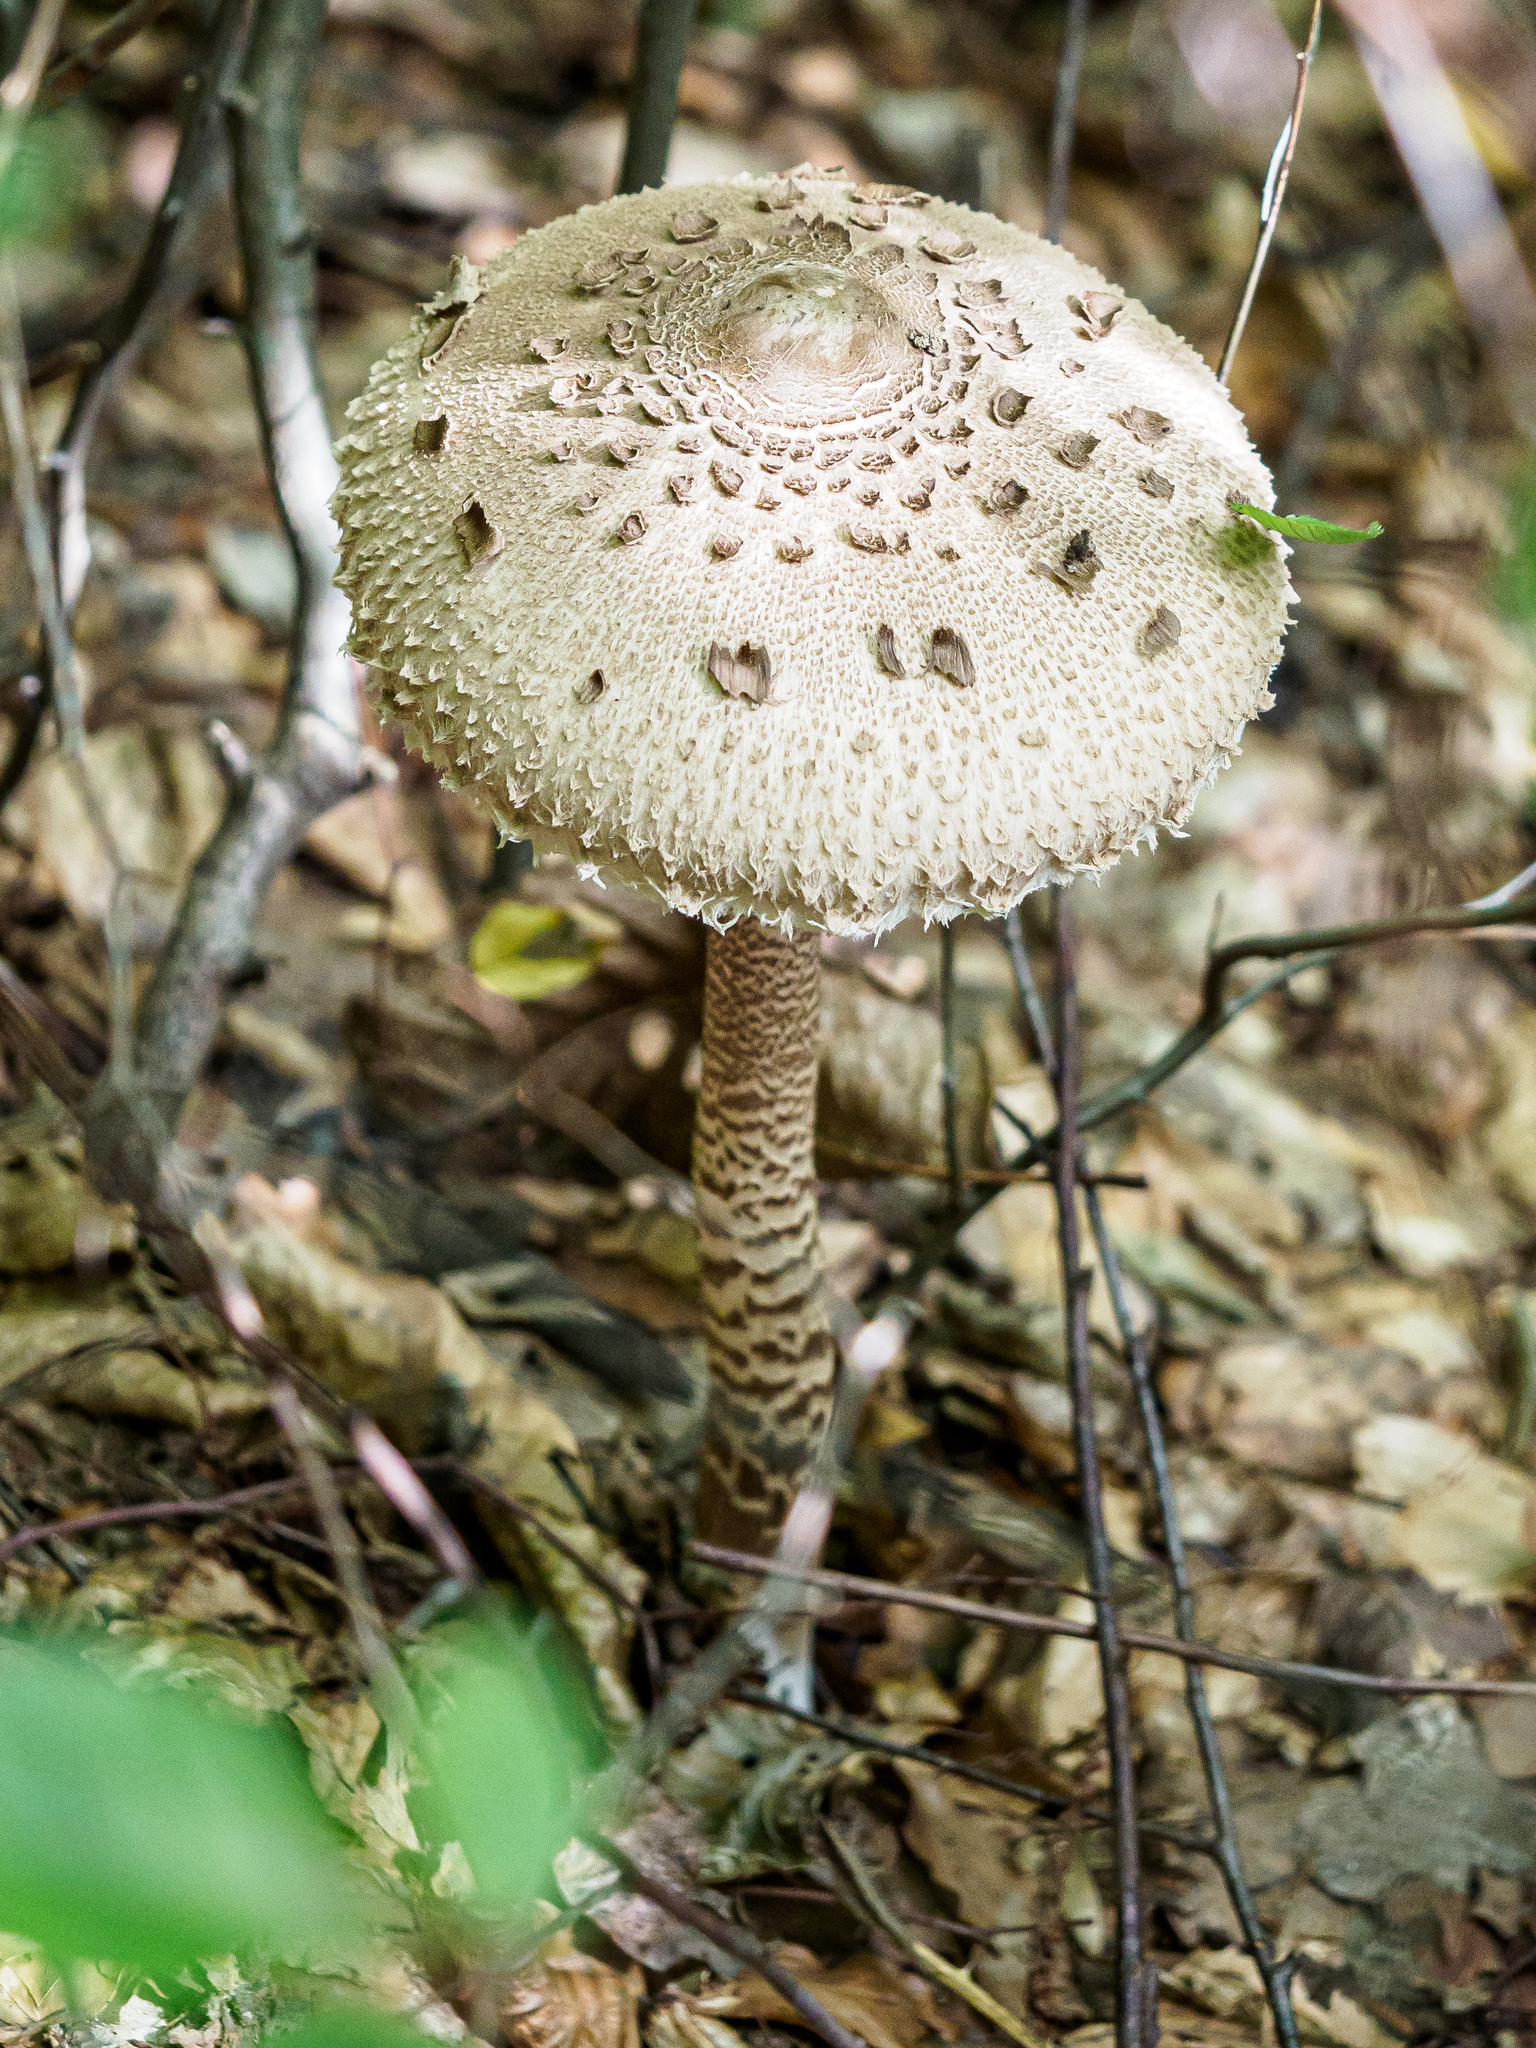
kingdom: Fungi
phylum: Basidiomycota
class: Agaricomycetes
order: Agaricales
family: Agaricaceae
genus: Macrolepiota
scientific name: Macrolepiota procera
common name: Parasol
